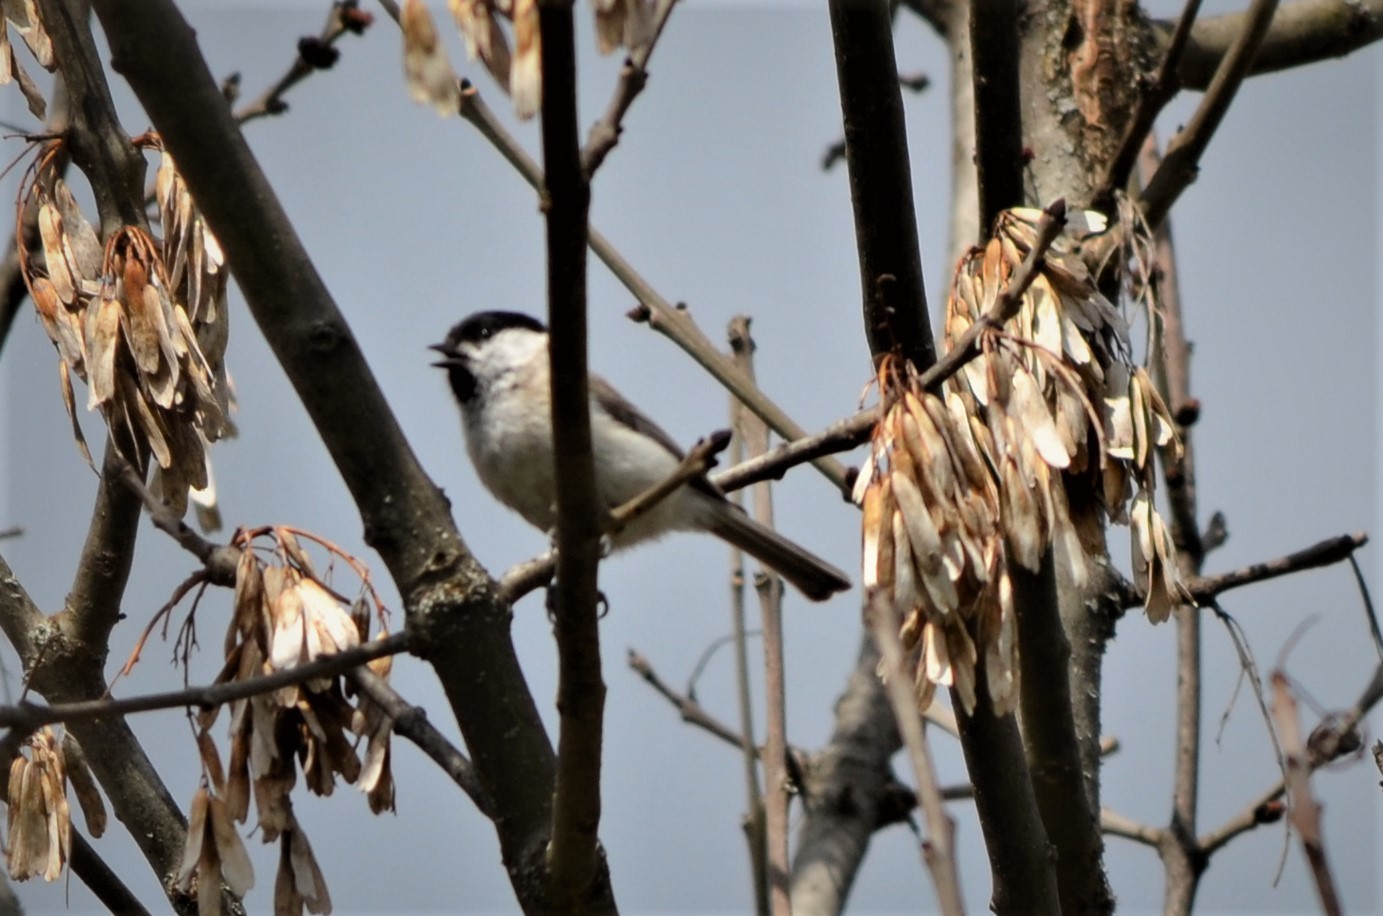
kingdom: Animalia
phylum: Chordata
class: Aves
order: Passeriformes
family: Paridae
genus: Poecile
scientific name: Poecile palustris
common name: Marsh tit
